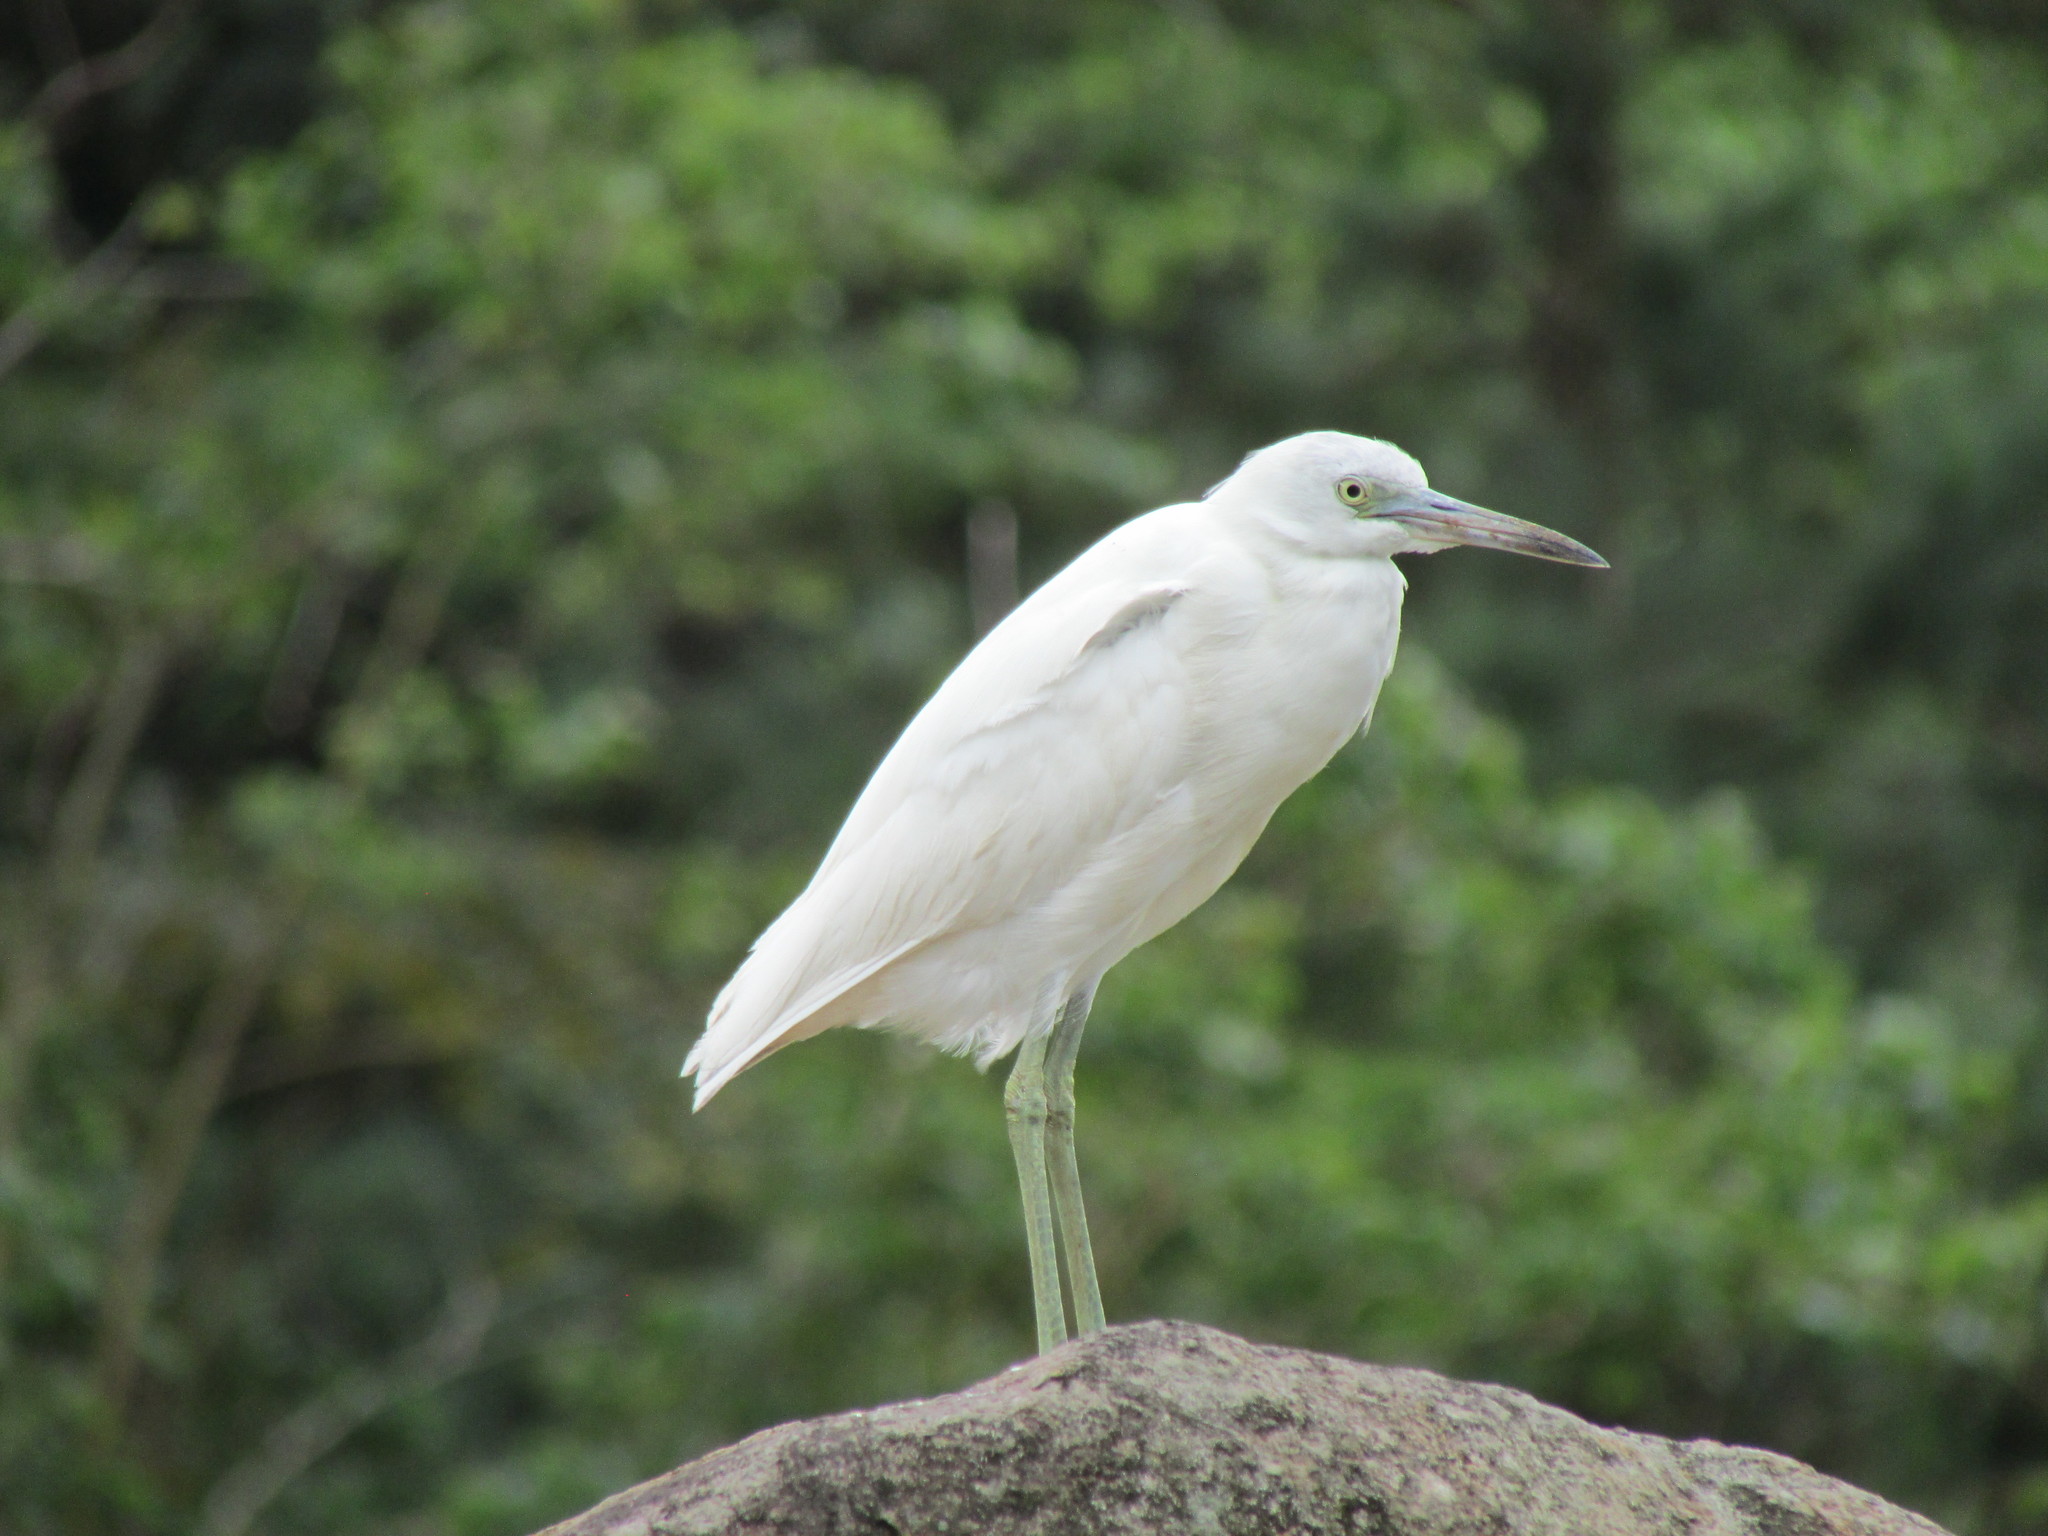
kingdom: Animalia
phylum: Chordata
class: Aves
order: Pelecaniformes
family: Ardeidae
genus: Egretta
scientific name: Egretta caerulea
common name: Little blue heron
